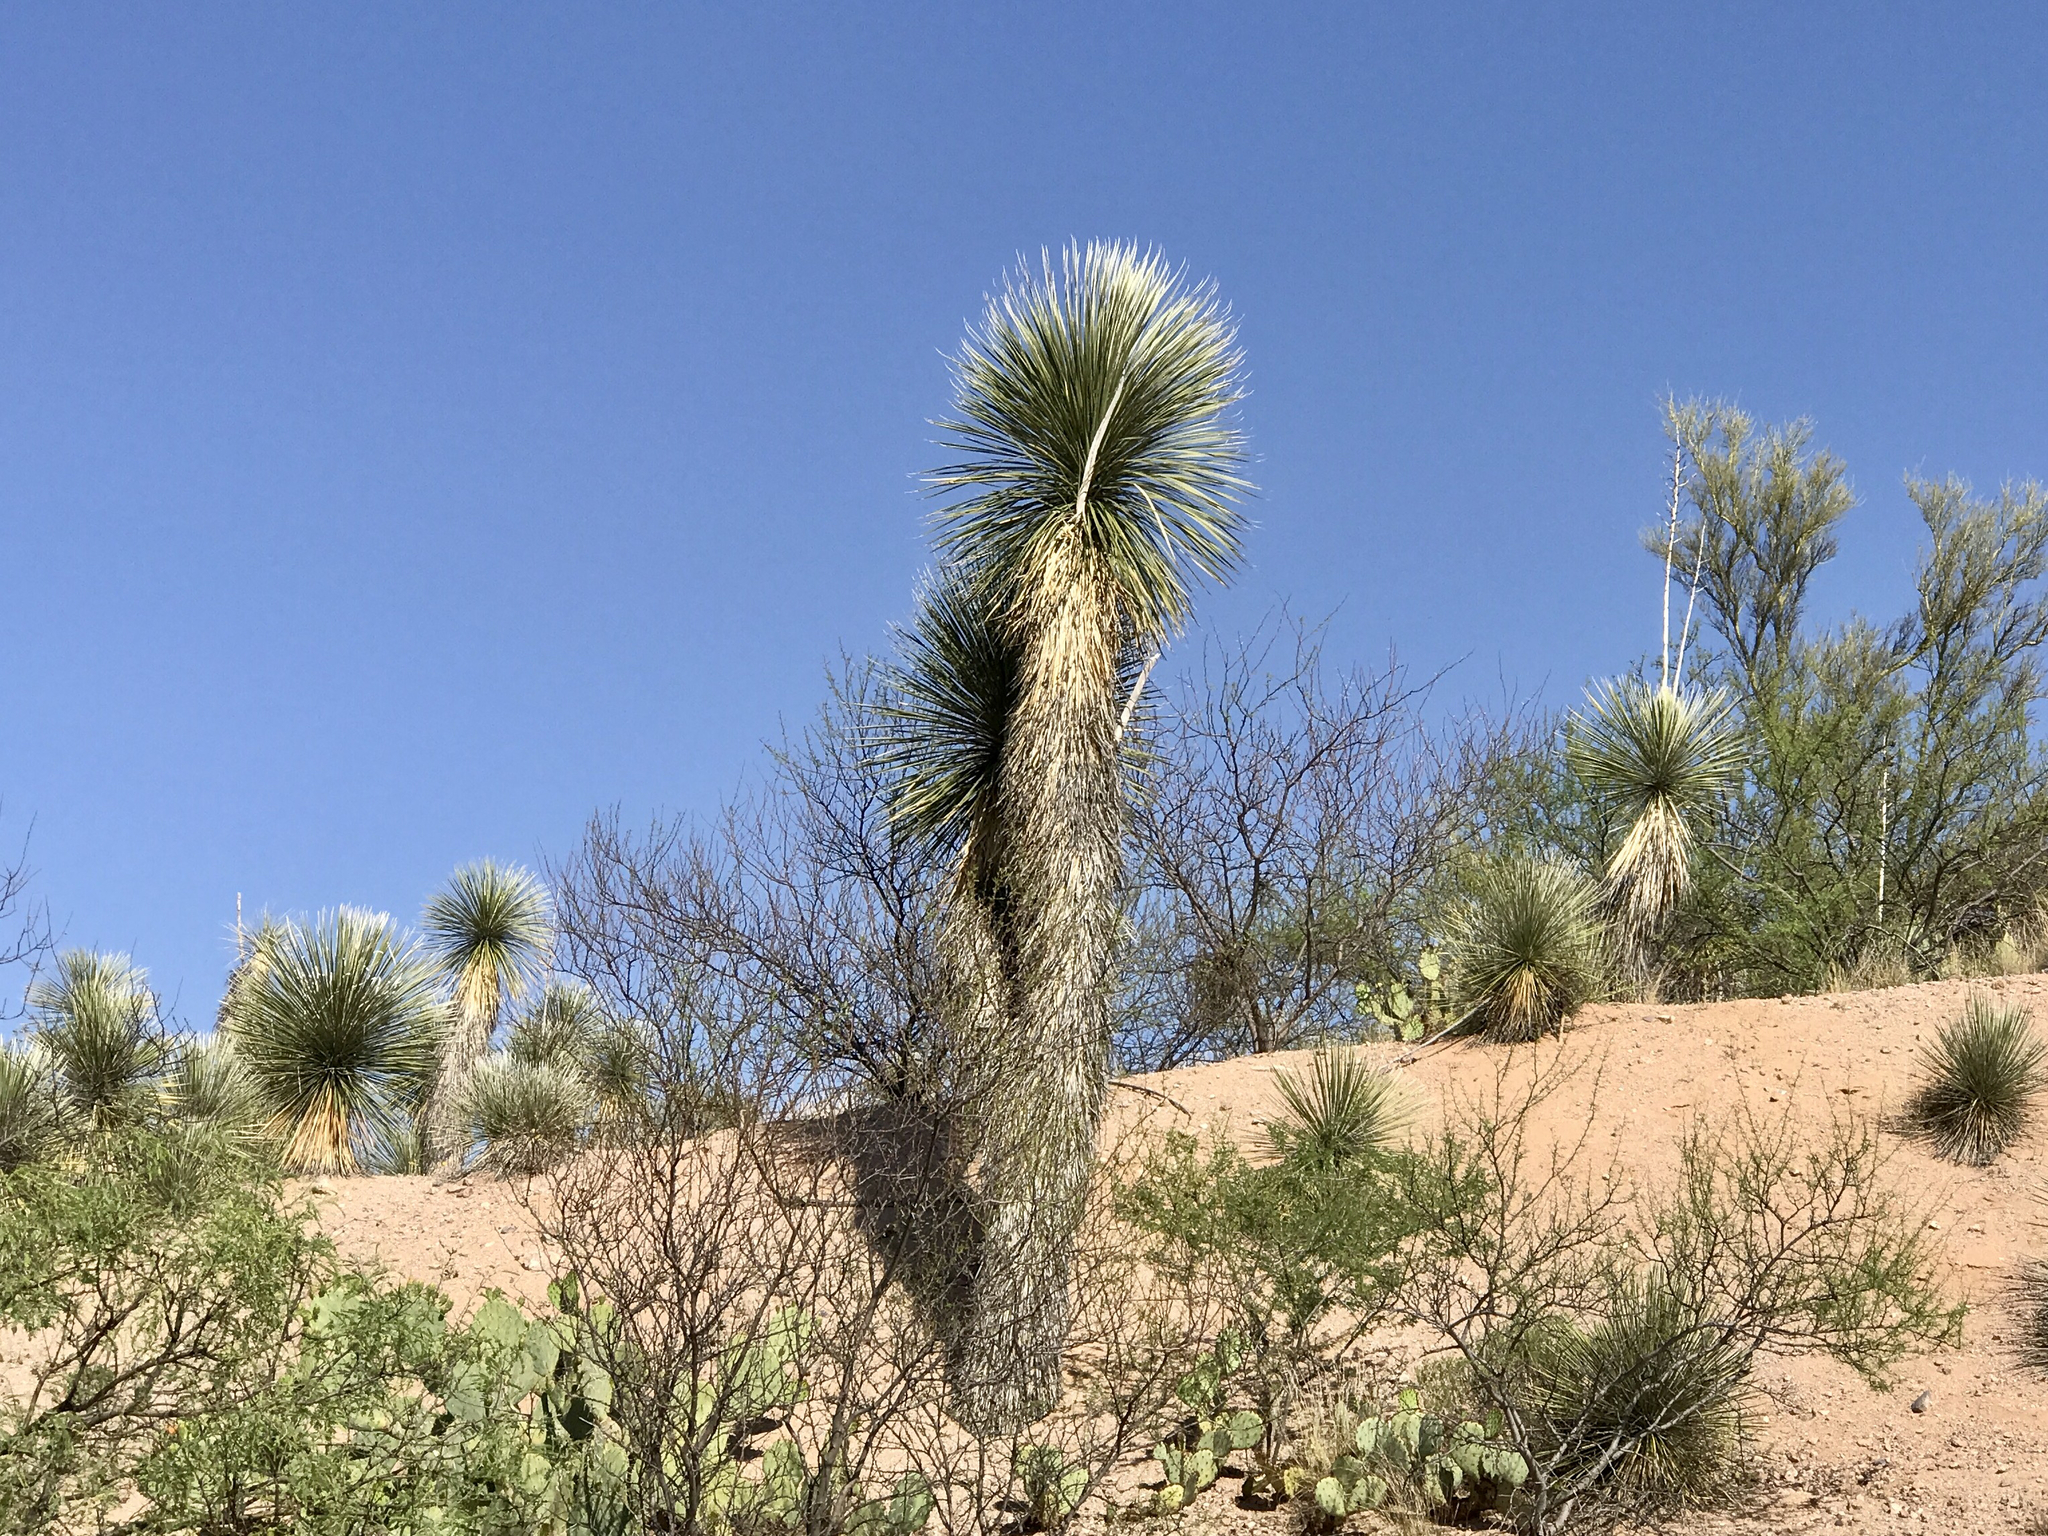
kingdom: Plantae
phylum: Tracheophyta
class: Liliopsida
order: Asparagales
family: Asparagaceae
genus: Yucca
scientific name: Yucca elata
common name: Palmella
